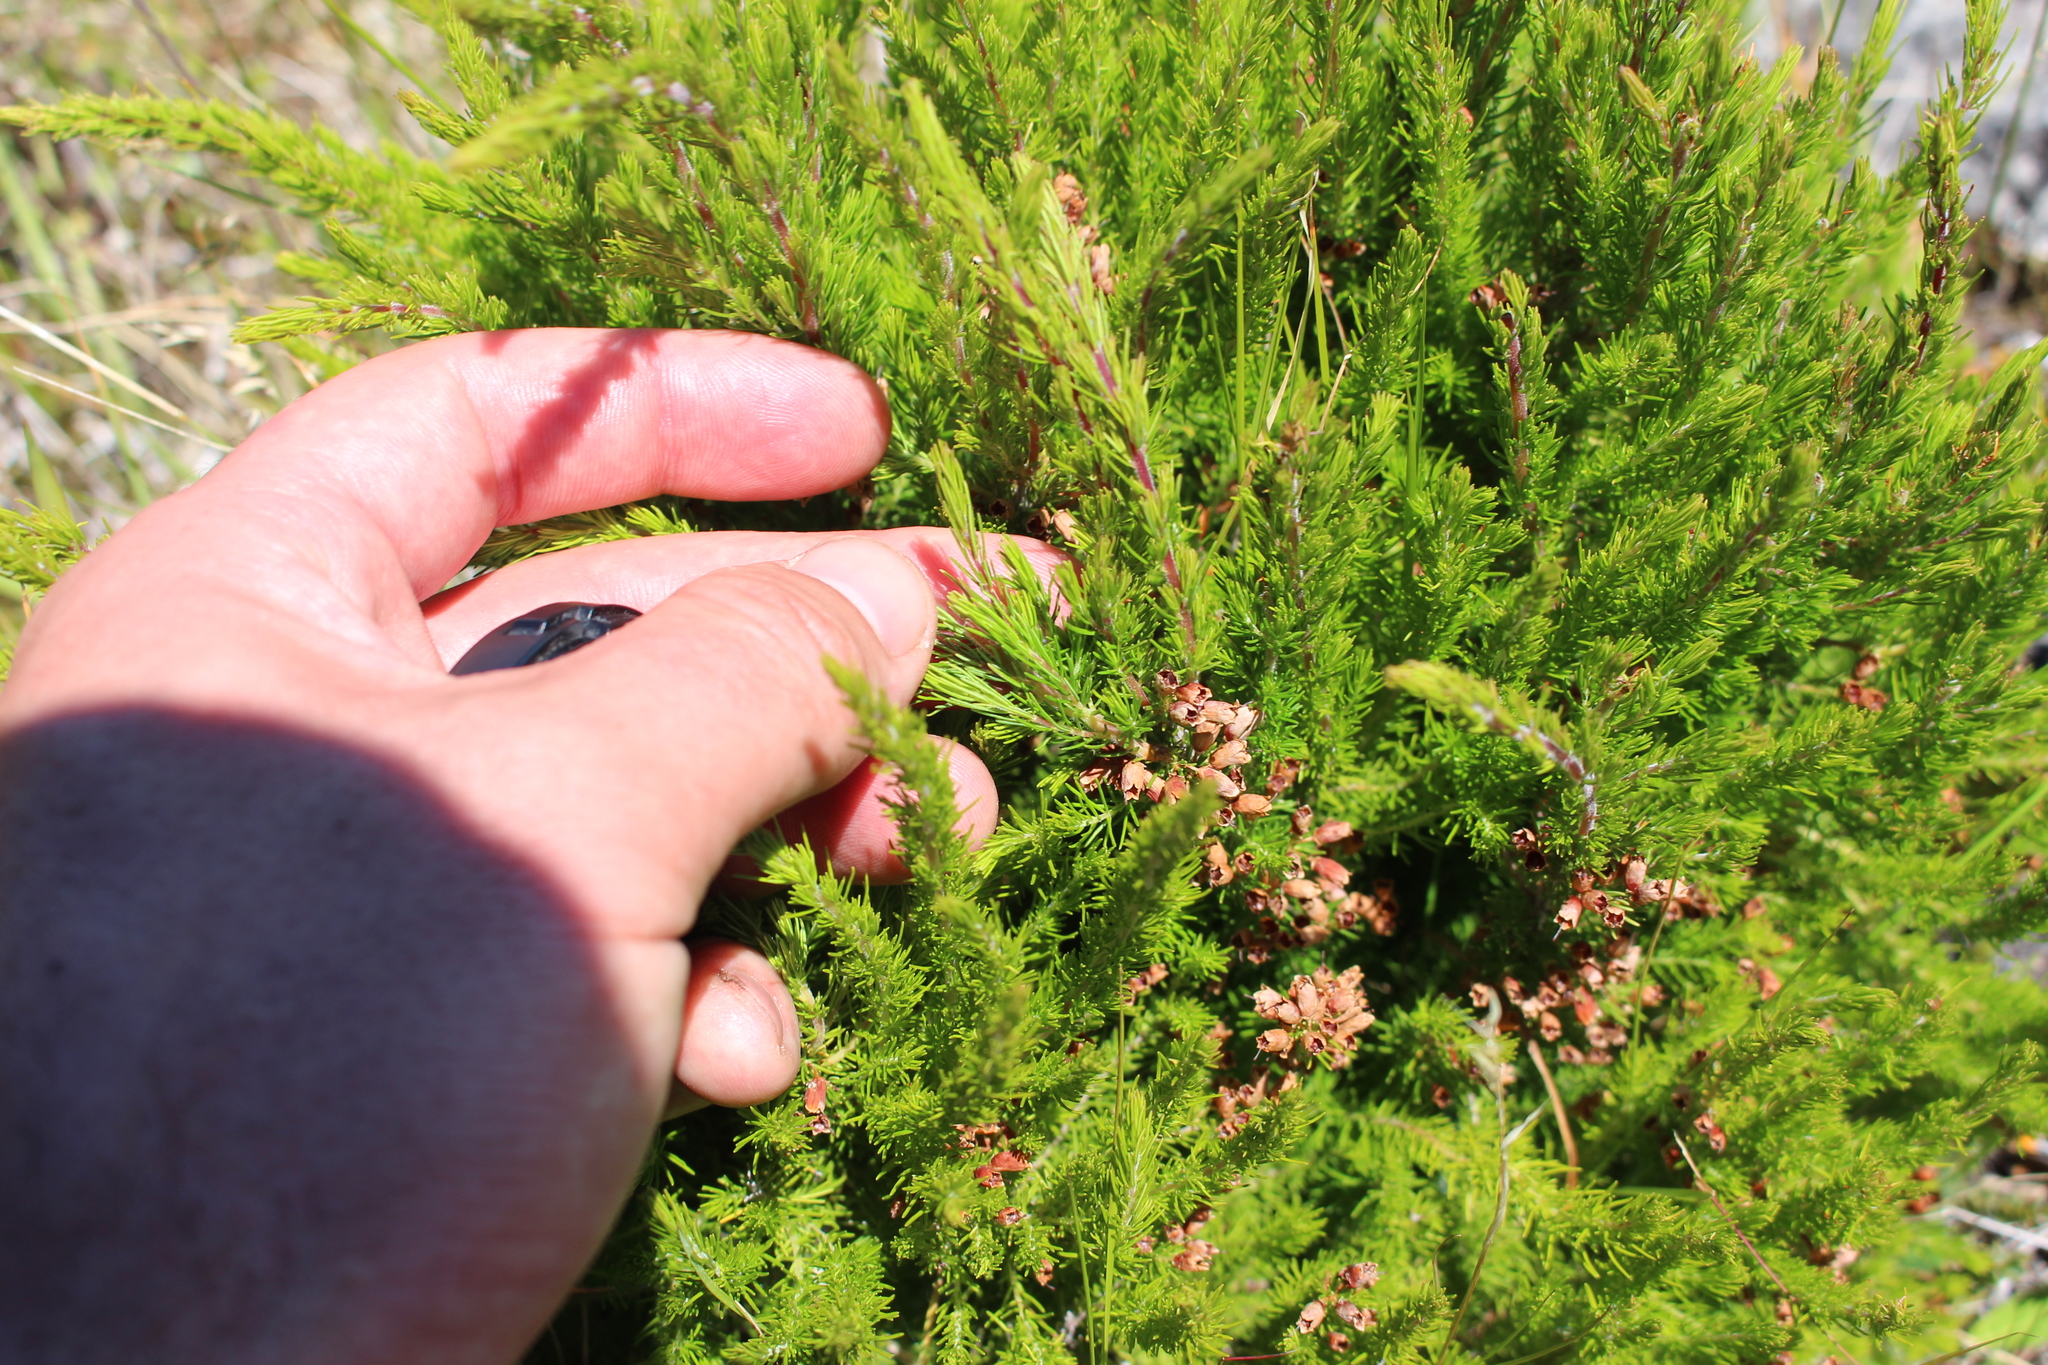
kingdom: Plantae
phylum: Tracheophyta
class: Magnoliopsida
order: Ericales
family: Ericaceae
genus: Erica
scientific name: Erica lusitanica
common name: Spanish heath
